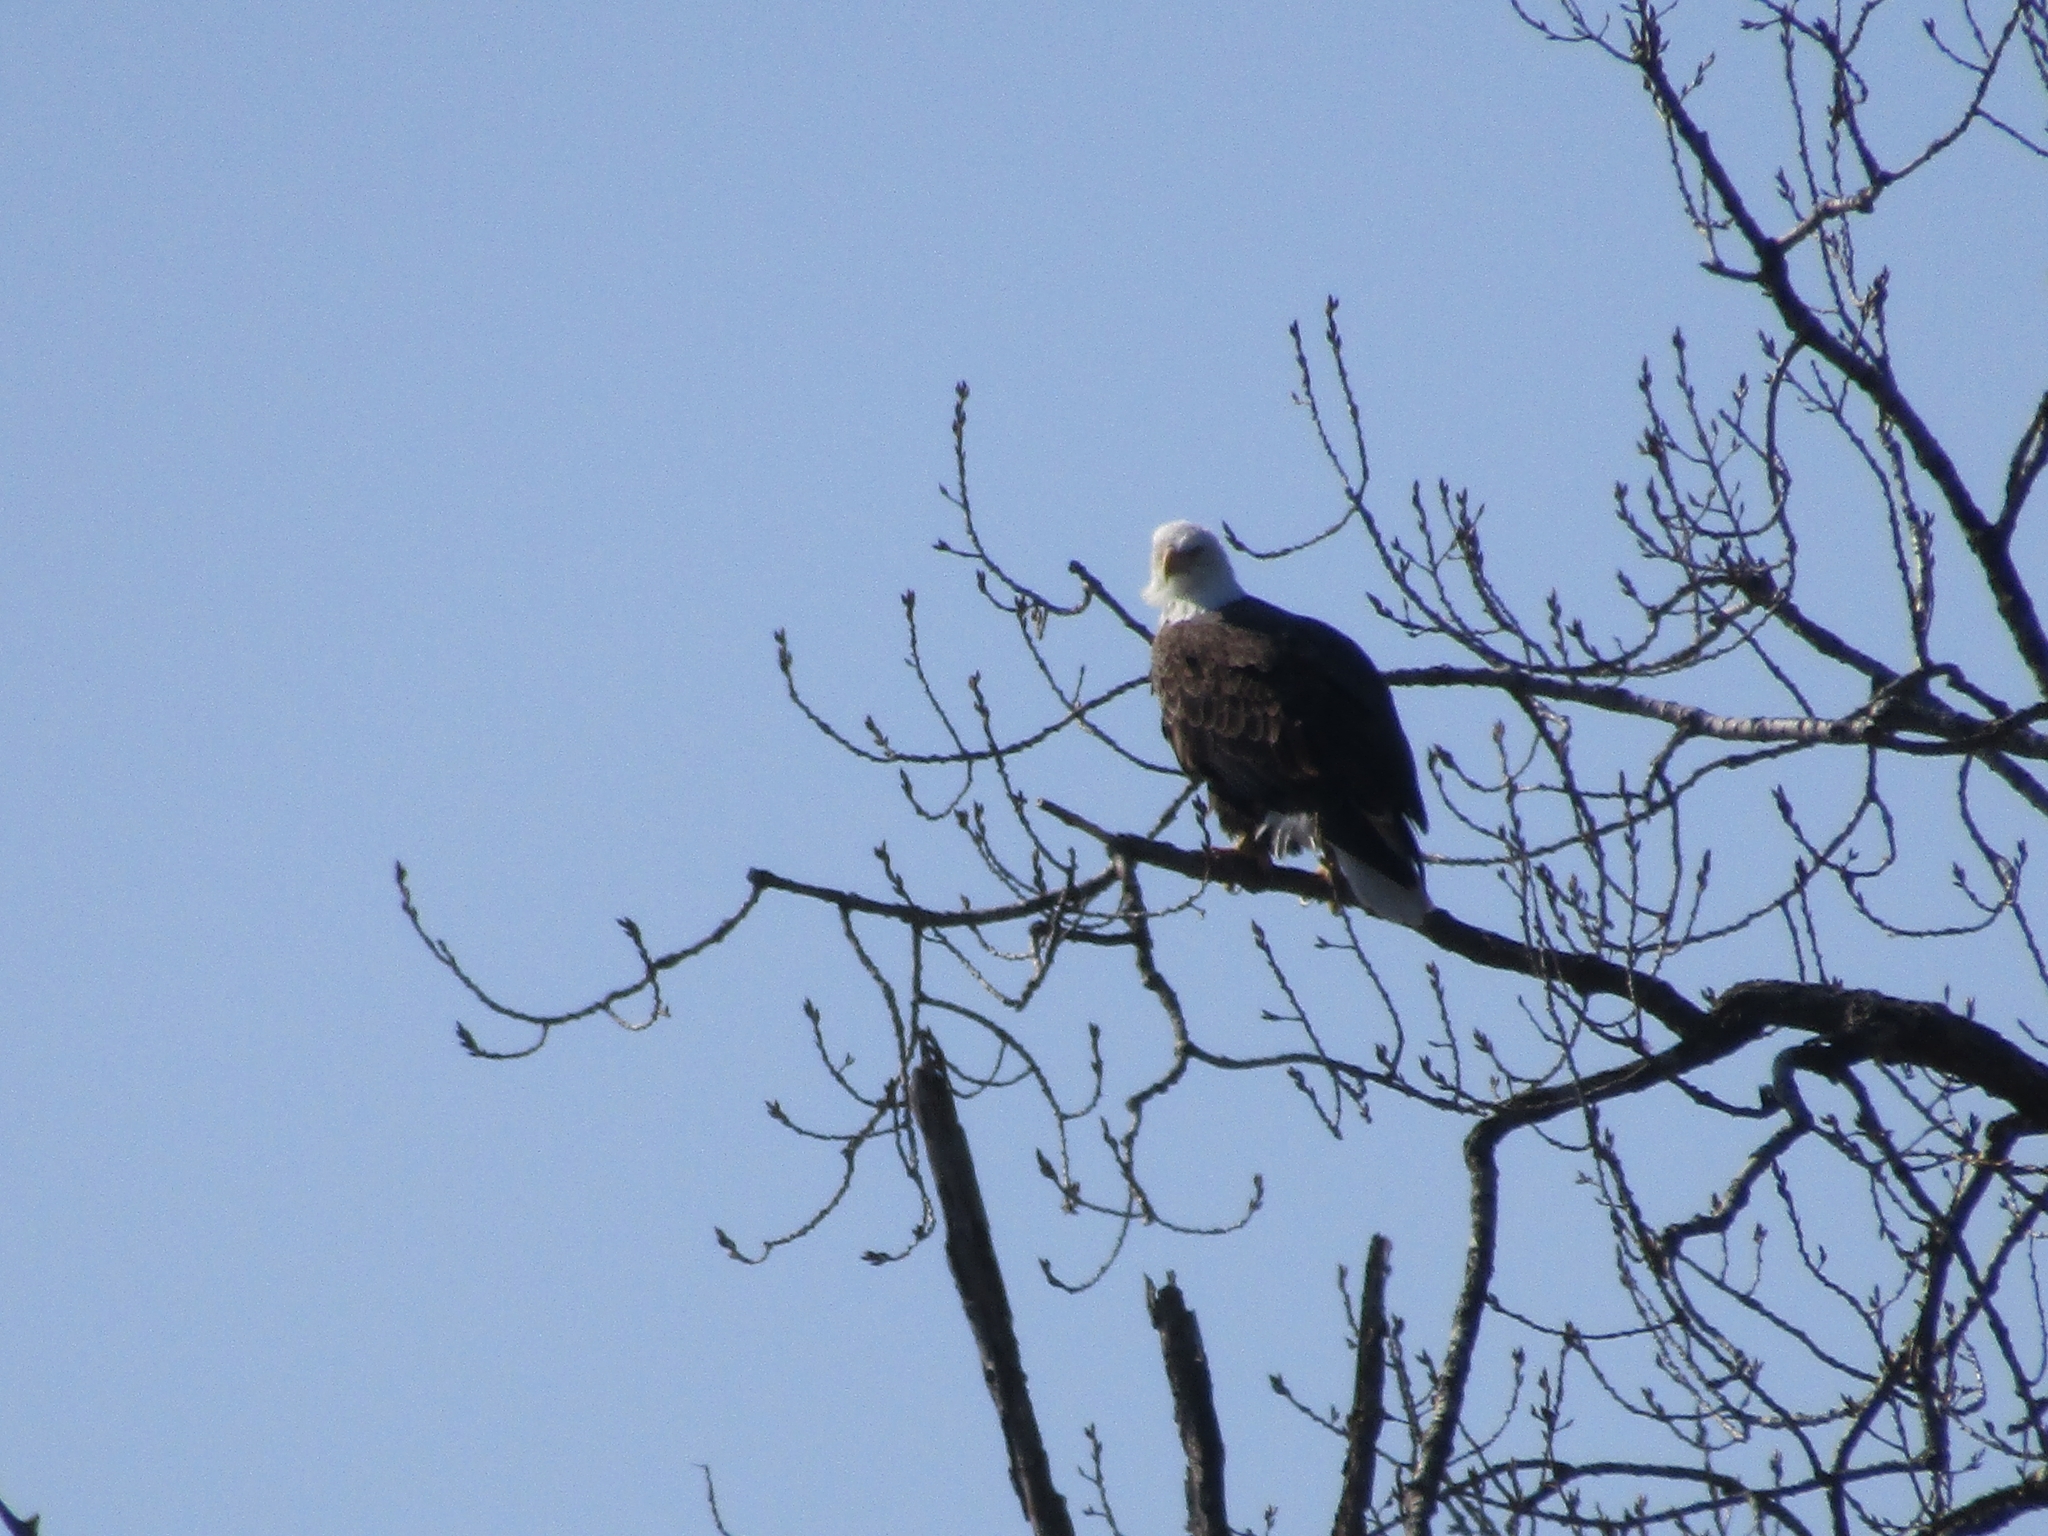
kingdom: Animalia
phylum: Chordata
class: Aves
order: Accipitriformes
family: Accipitridae
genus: Haliaeetus
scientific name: Haliaeetus leucocephalus
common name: Bald eagle
